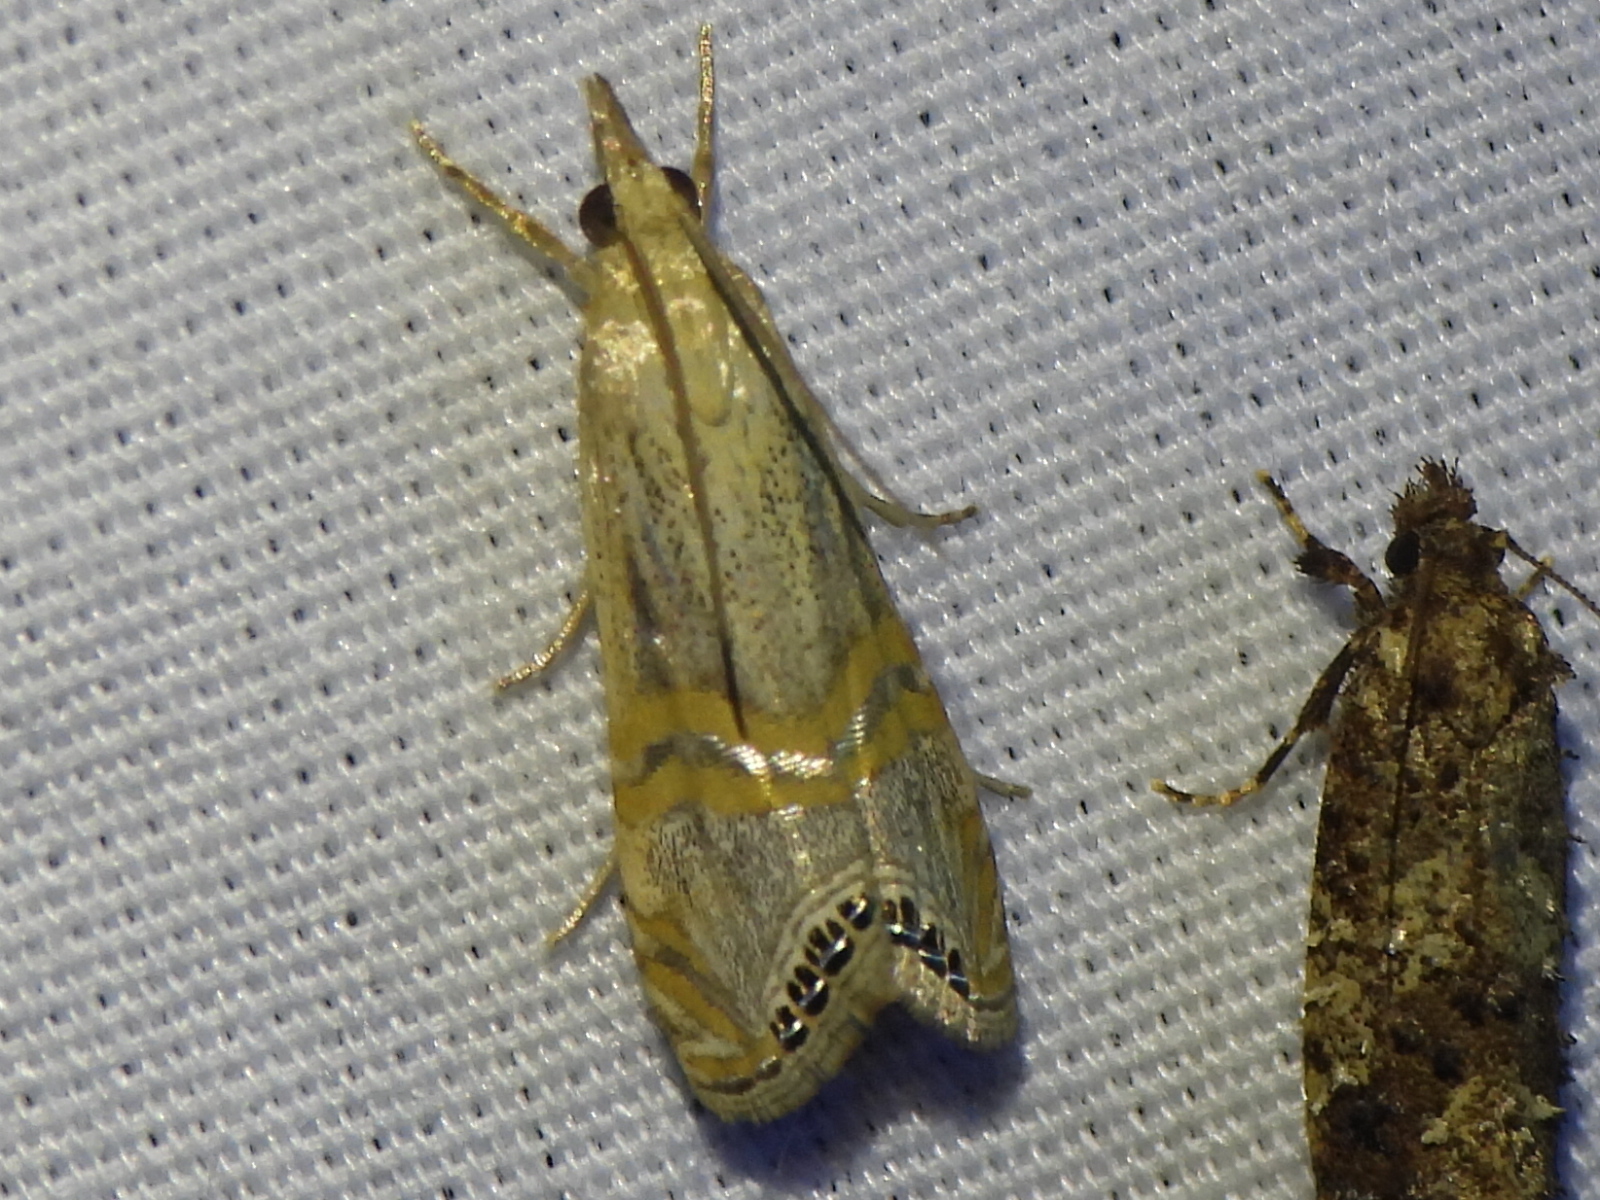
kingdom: Animalia
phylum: Arthropoda
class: Insecta
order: Lepidoptera
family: Crambidae
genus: Euchromius
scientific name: Euchromius ocellea
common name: Necklace veneer moth
